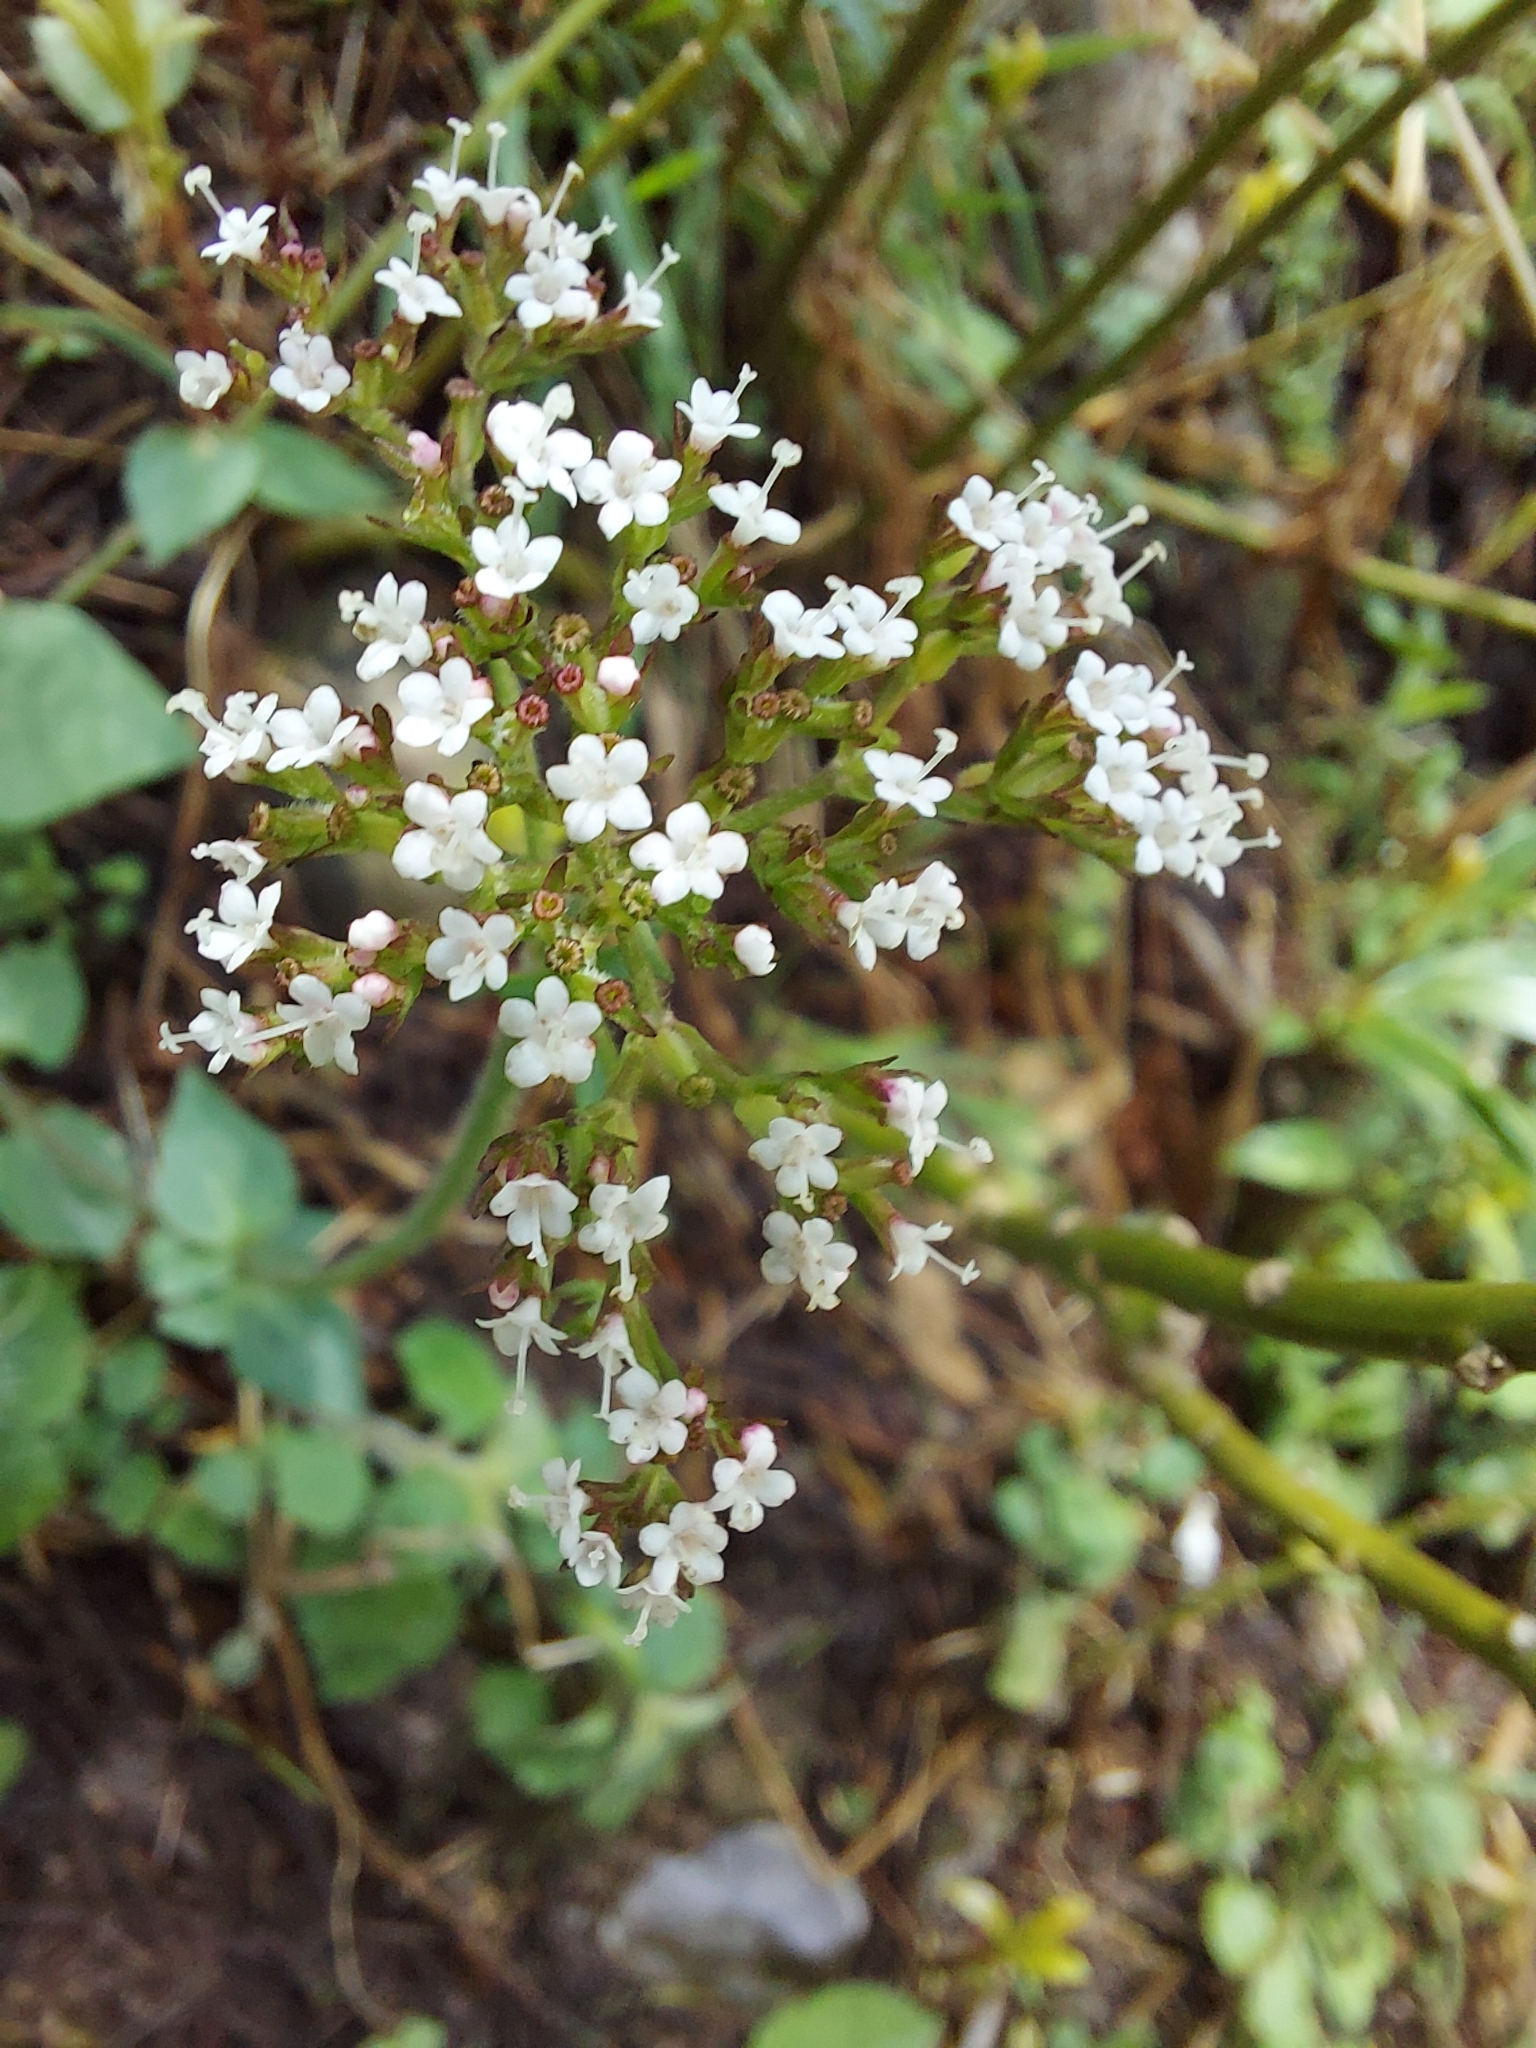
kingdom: Plantae
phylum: Tracheophyta
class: Magnoliopsida
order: Dipsacales
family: Caprifoliaceae
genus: Valeriana
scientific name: Valeriana jatamansi
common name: Indian valerian
